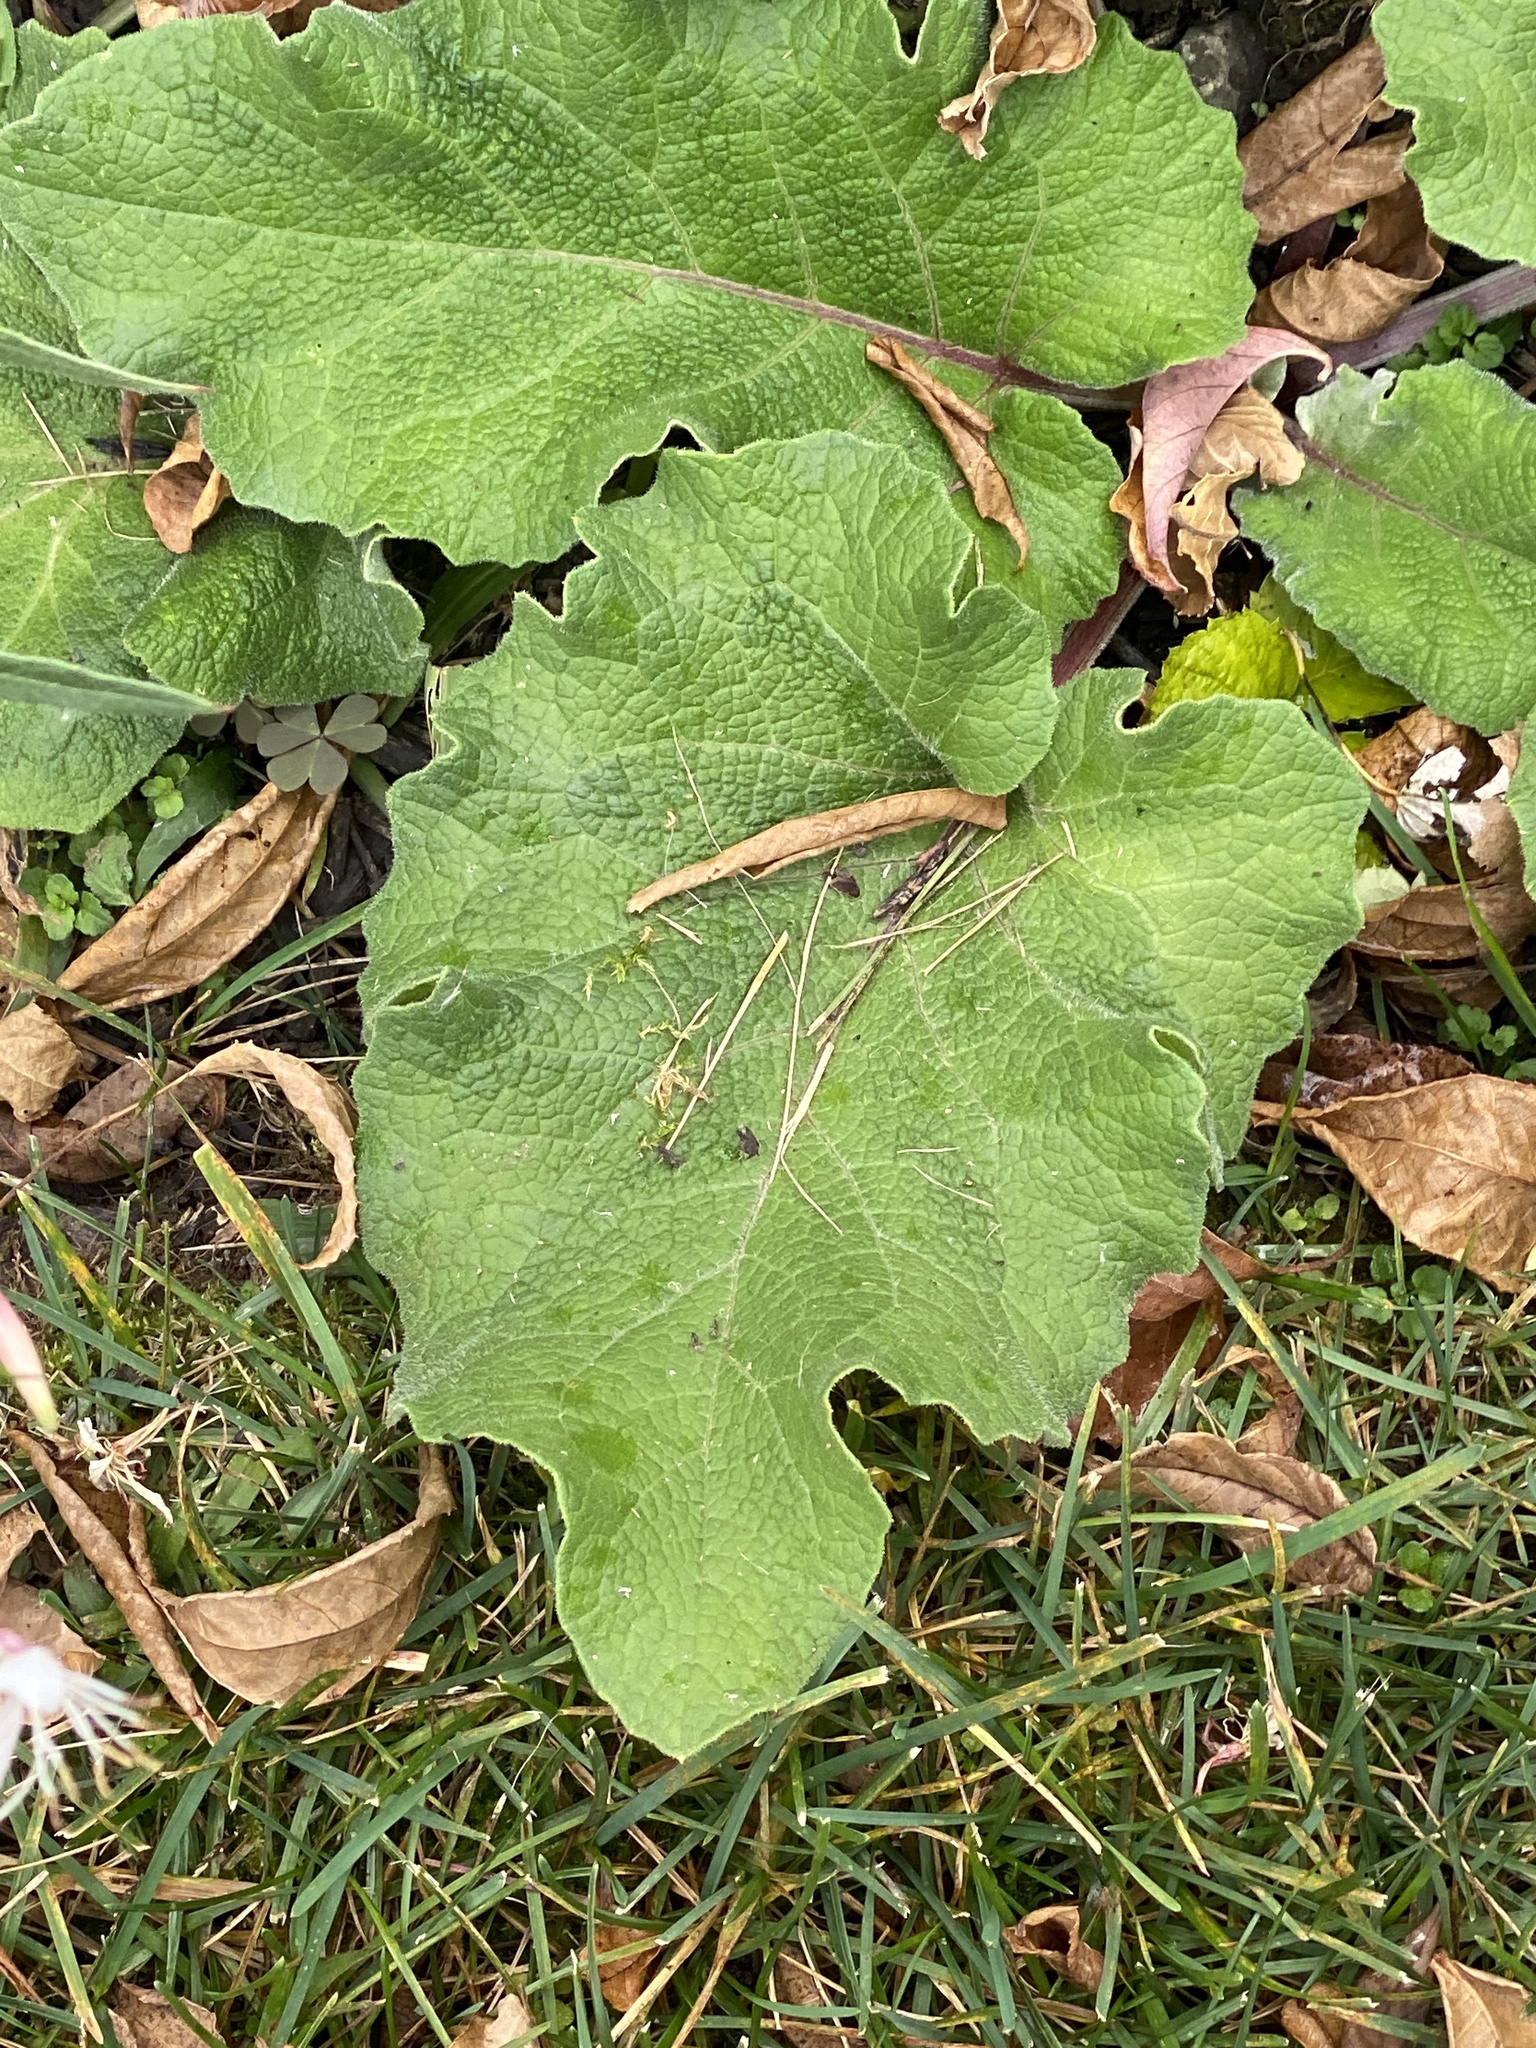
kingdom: Plantae
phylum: Tracheophyta
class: Magnoliopsida
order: Asterales
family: Asteraceae
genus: Arctium
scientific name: Arctium
